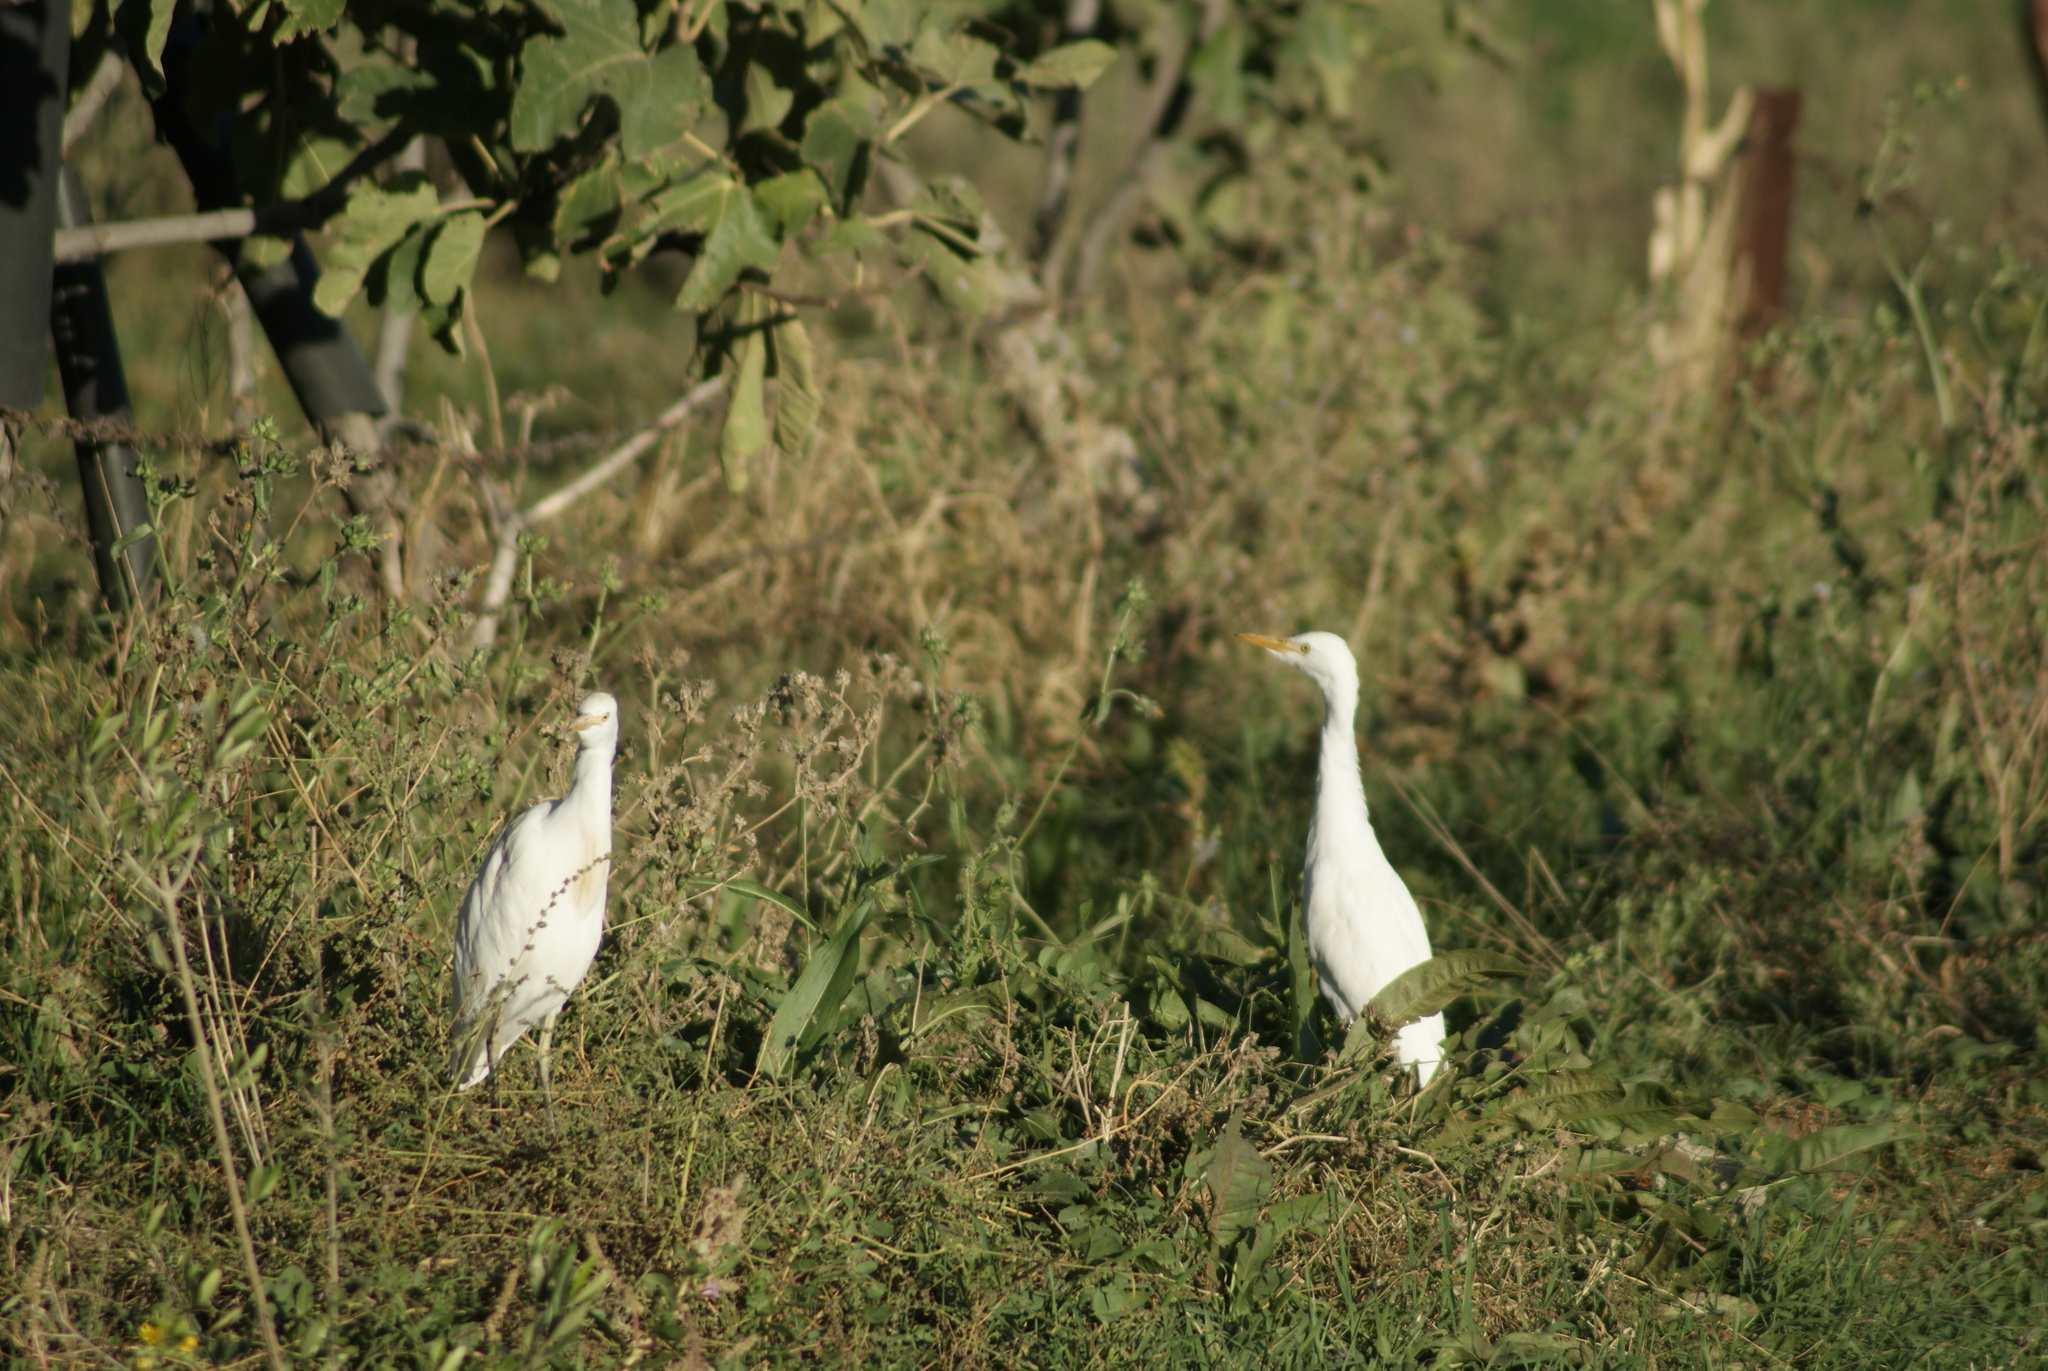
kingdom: Animalia
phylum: Chordata
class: Aves
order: Pelecaniformes
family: Ardeidae
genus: Bubulcus
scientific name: Bubulcus ibis
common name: Cattle egret
